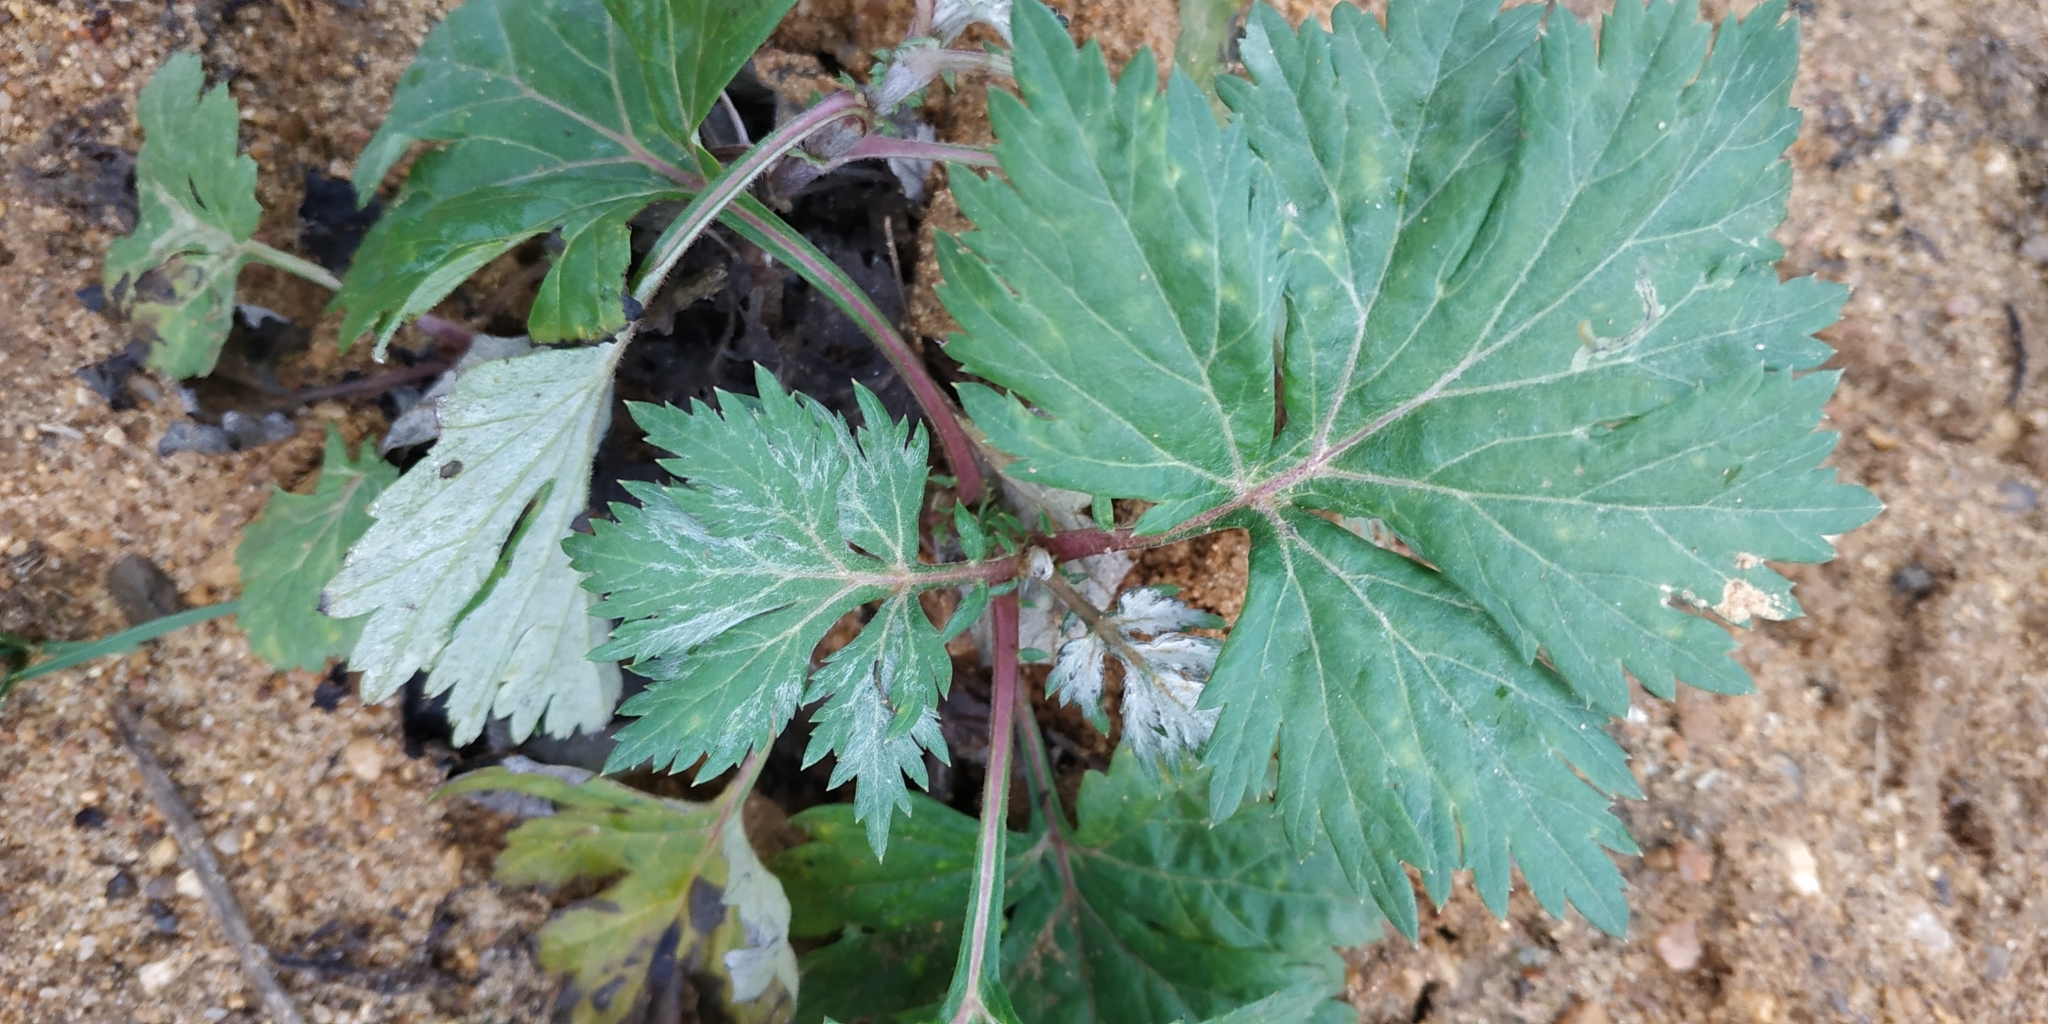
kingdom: Plantae
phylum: Tracheophyta
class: Magnoliopsida
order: Asterales
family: Asteraceae
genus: Artemisia
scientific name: Artemisia vulgaris
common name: Mugwort
